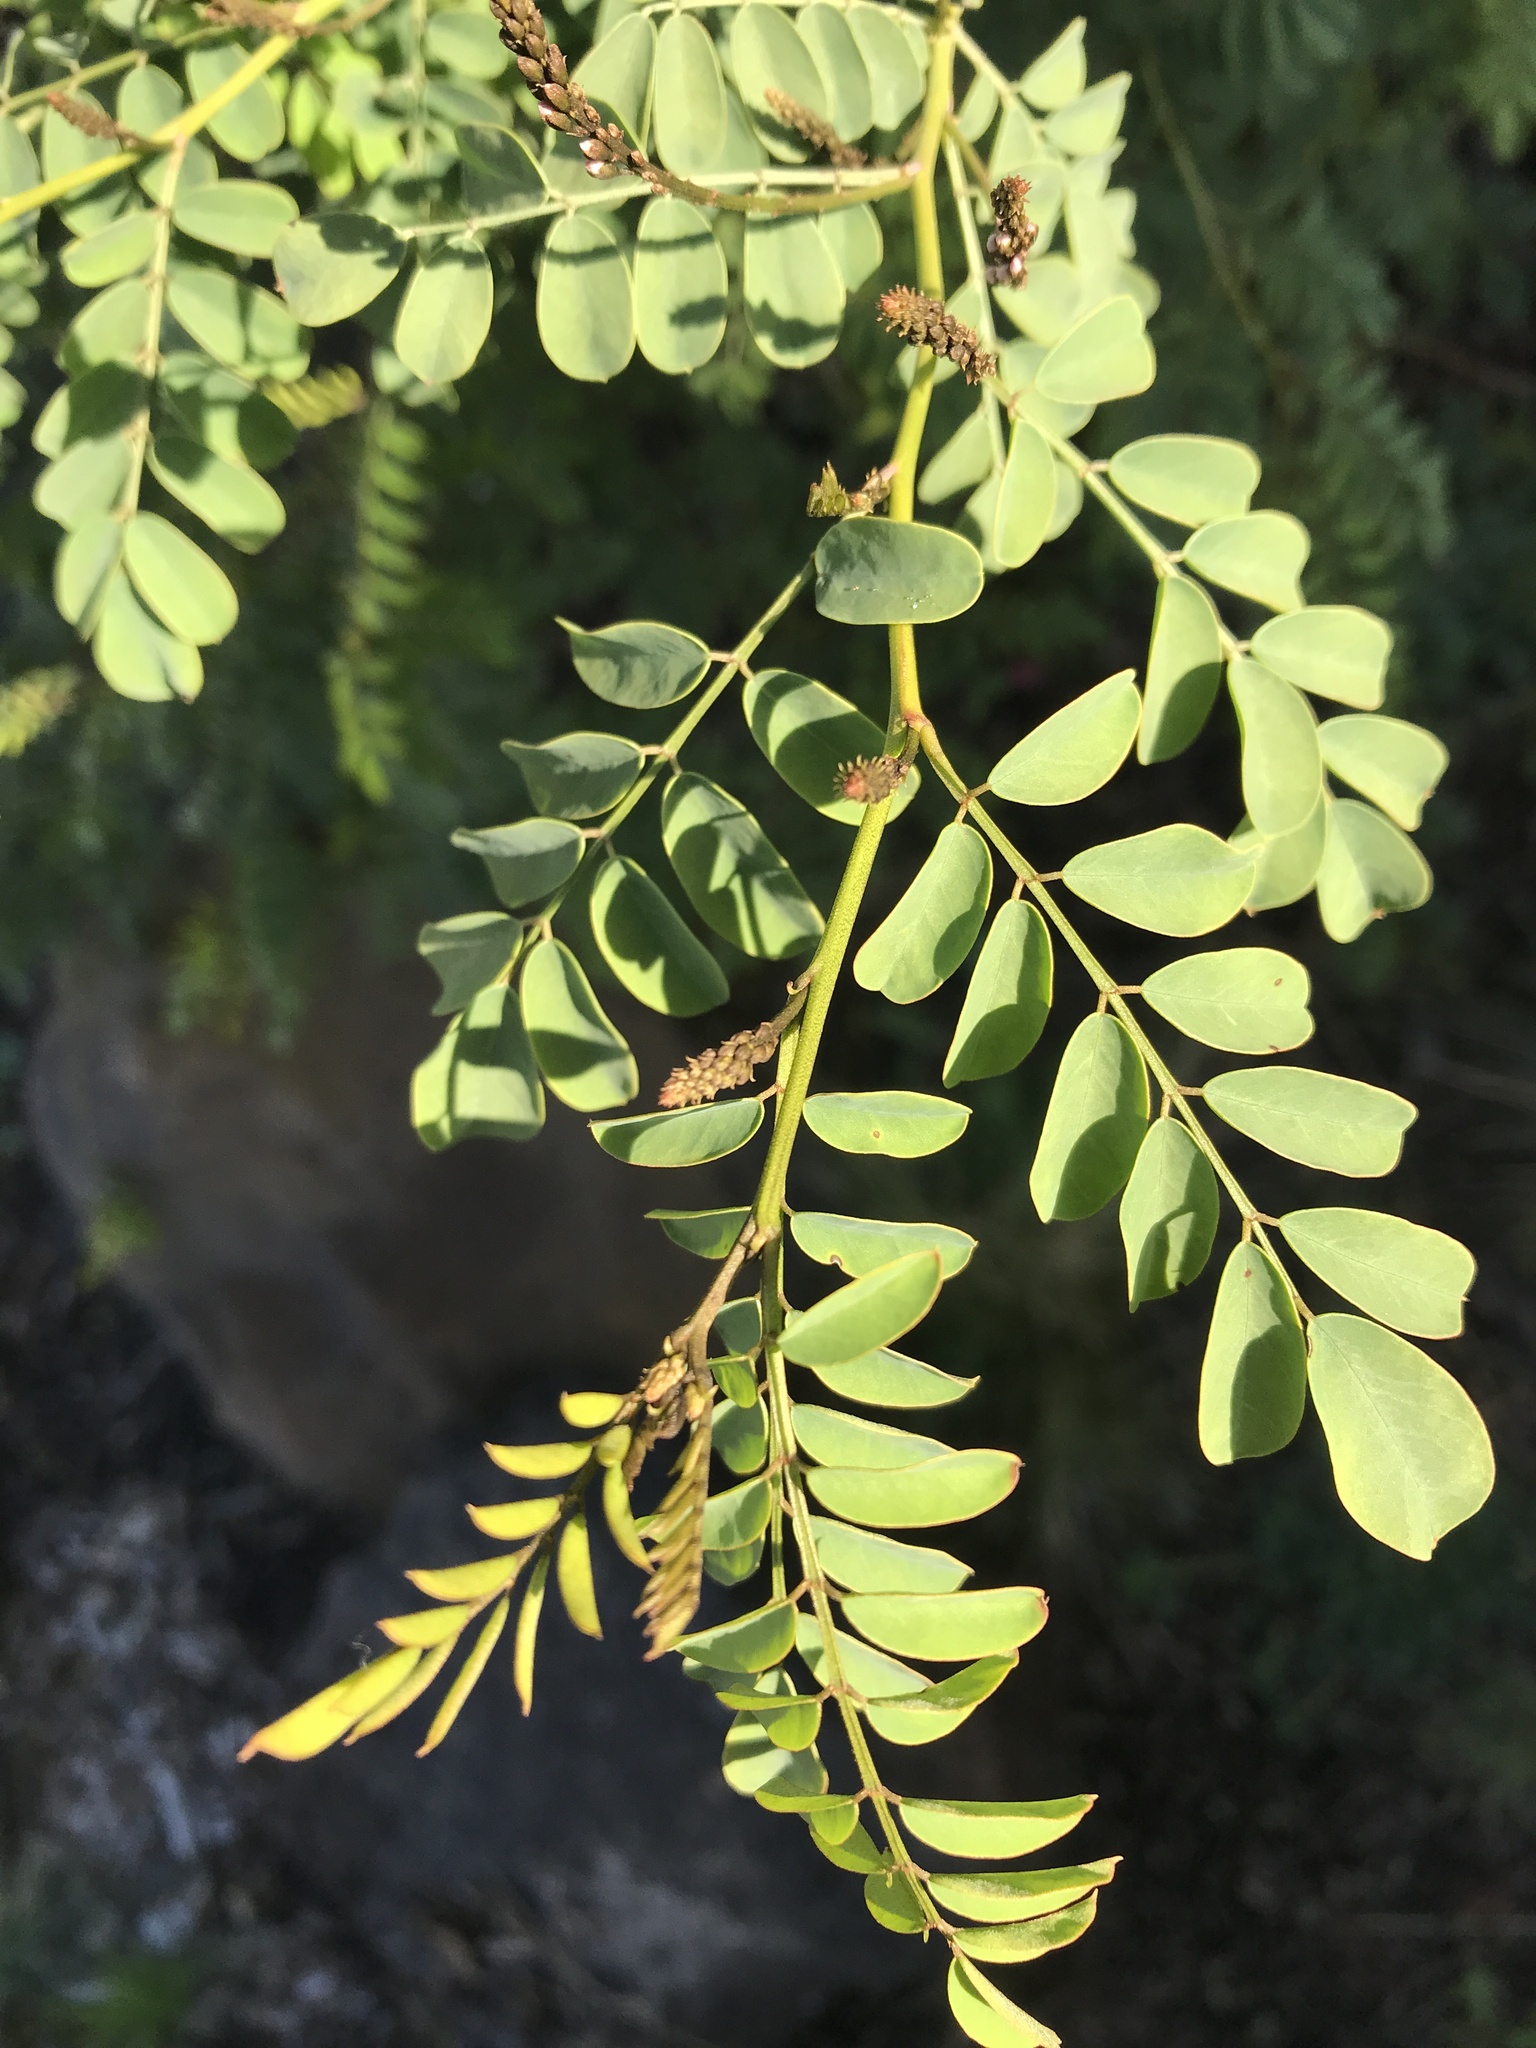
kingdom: Plantae
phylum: Tracheophyta
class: Magnoliopsida
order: Fabales
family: Fabaceae
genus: Indigofera
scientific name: Indigofera australis
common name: Australian indigo
